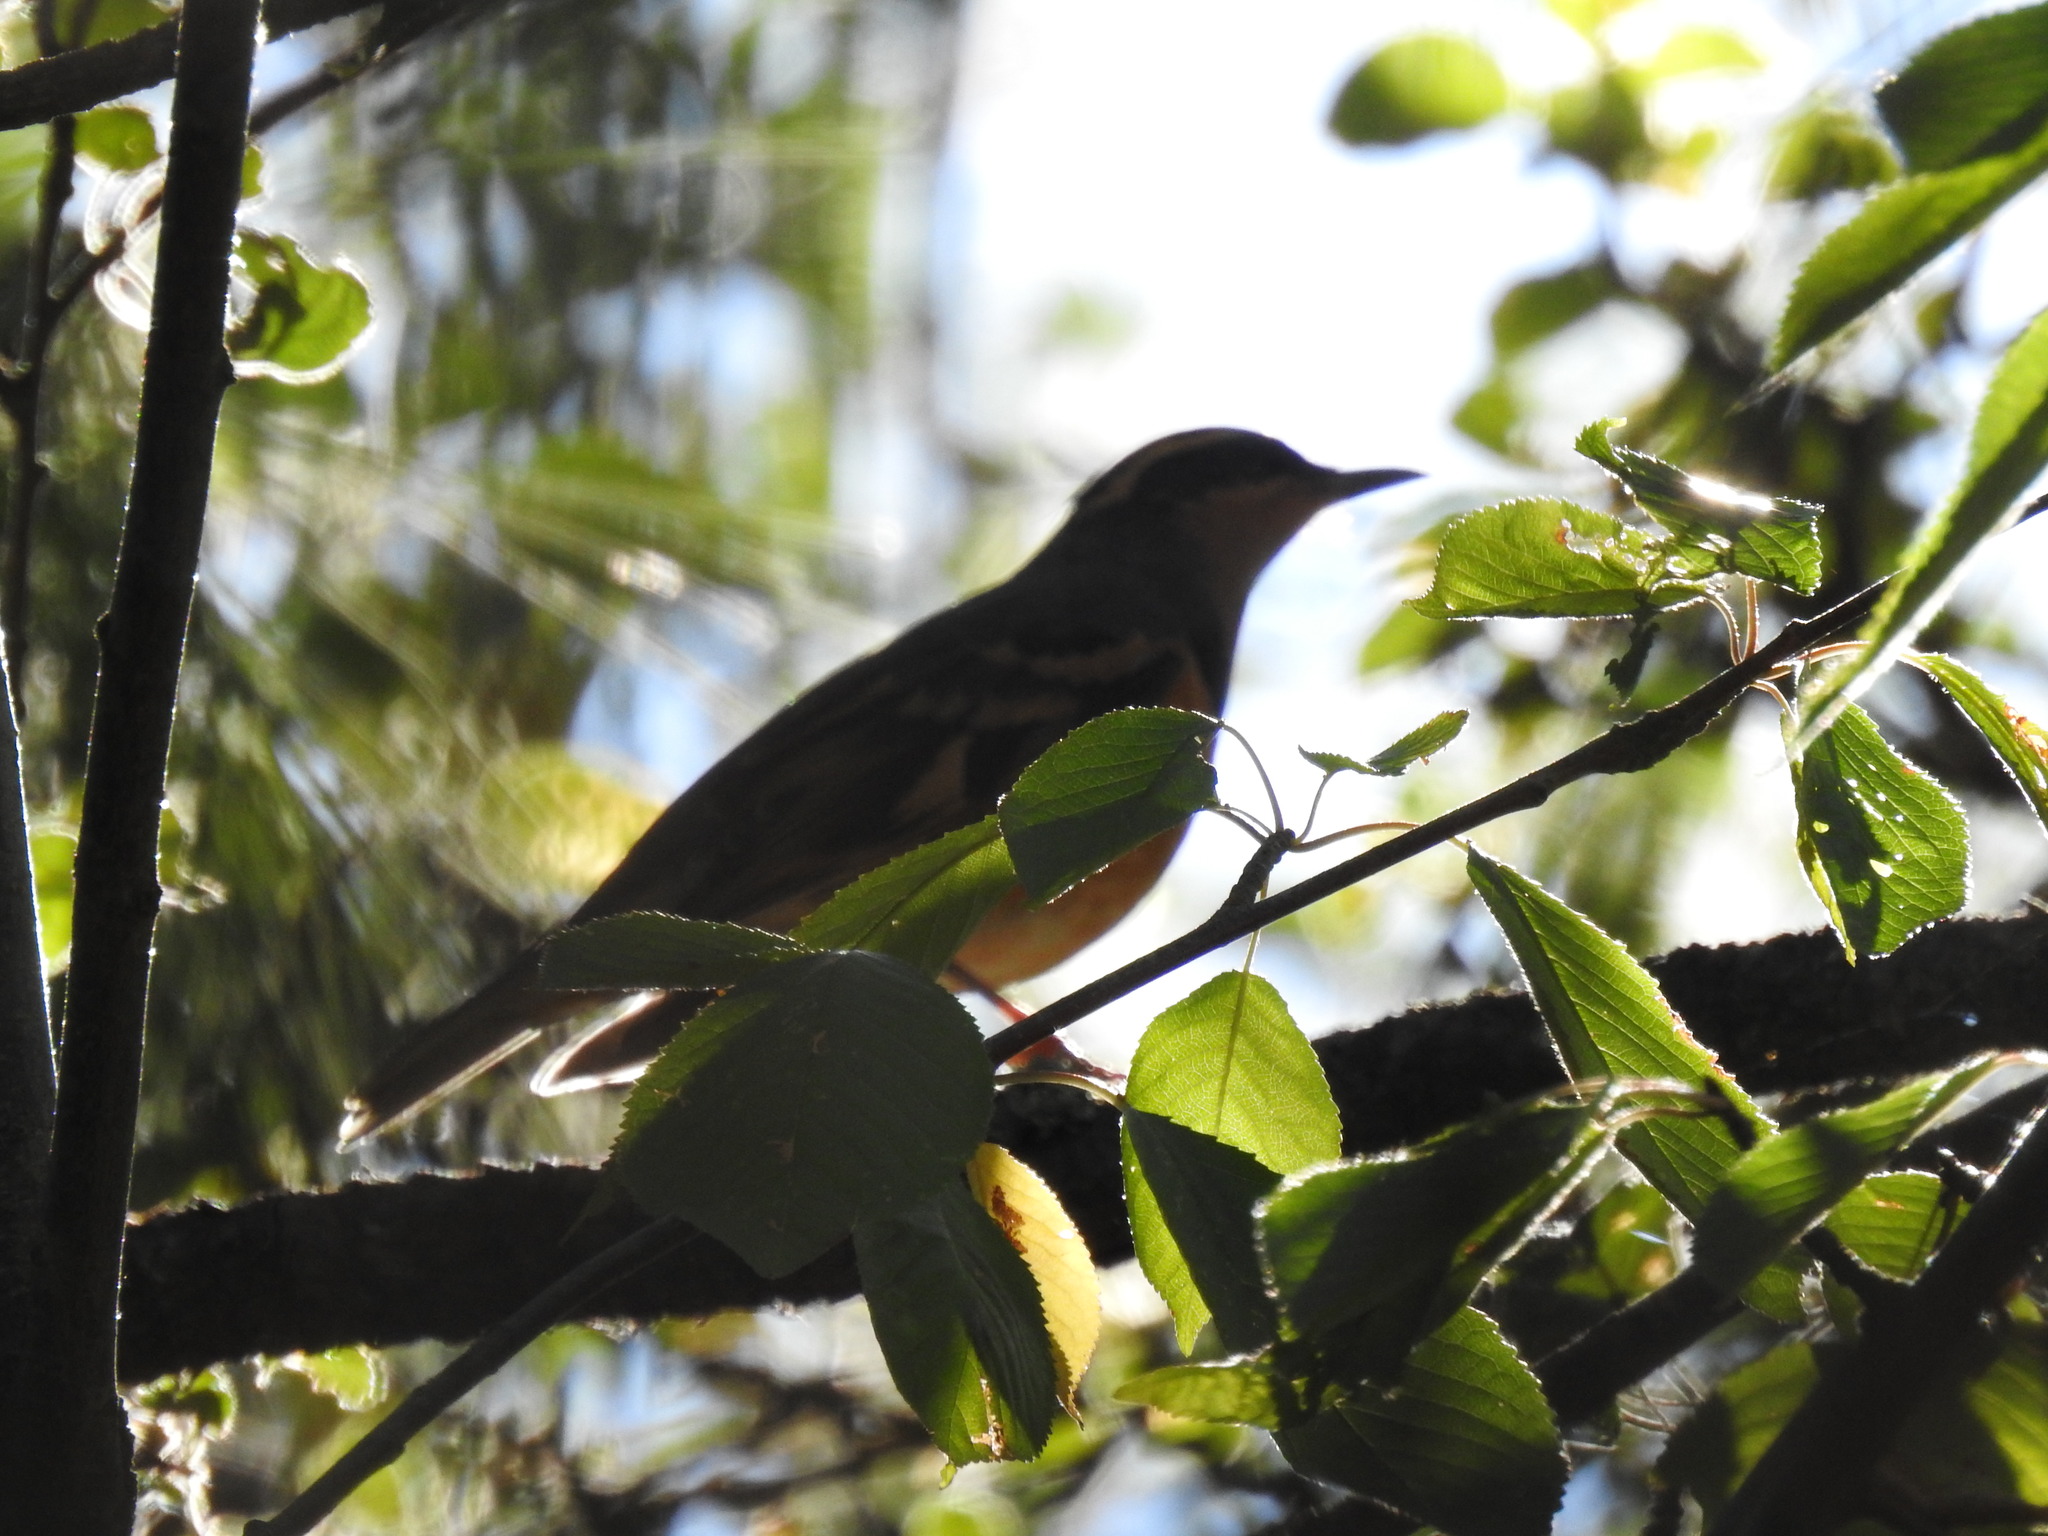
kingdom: Animalia
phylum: Chordata
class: Aves
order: Passeriformes
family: Turdidae
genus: Ixoreus
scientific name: Ixoreus naevius
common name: Varied thrush
